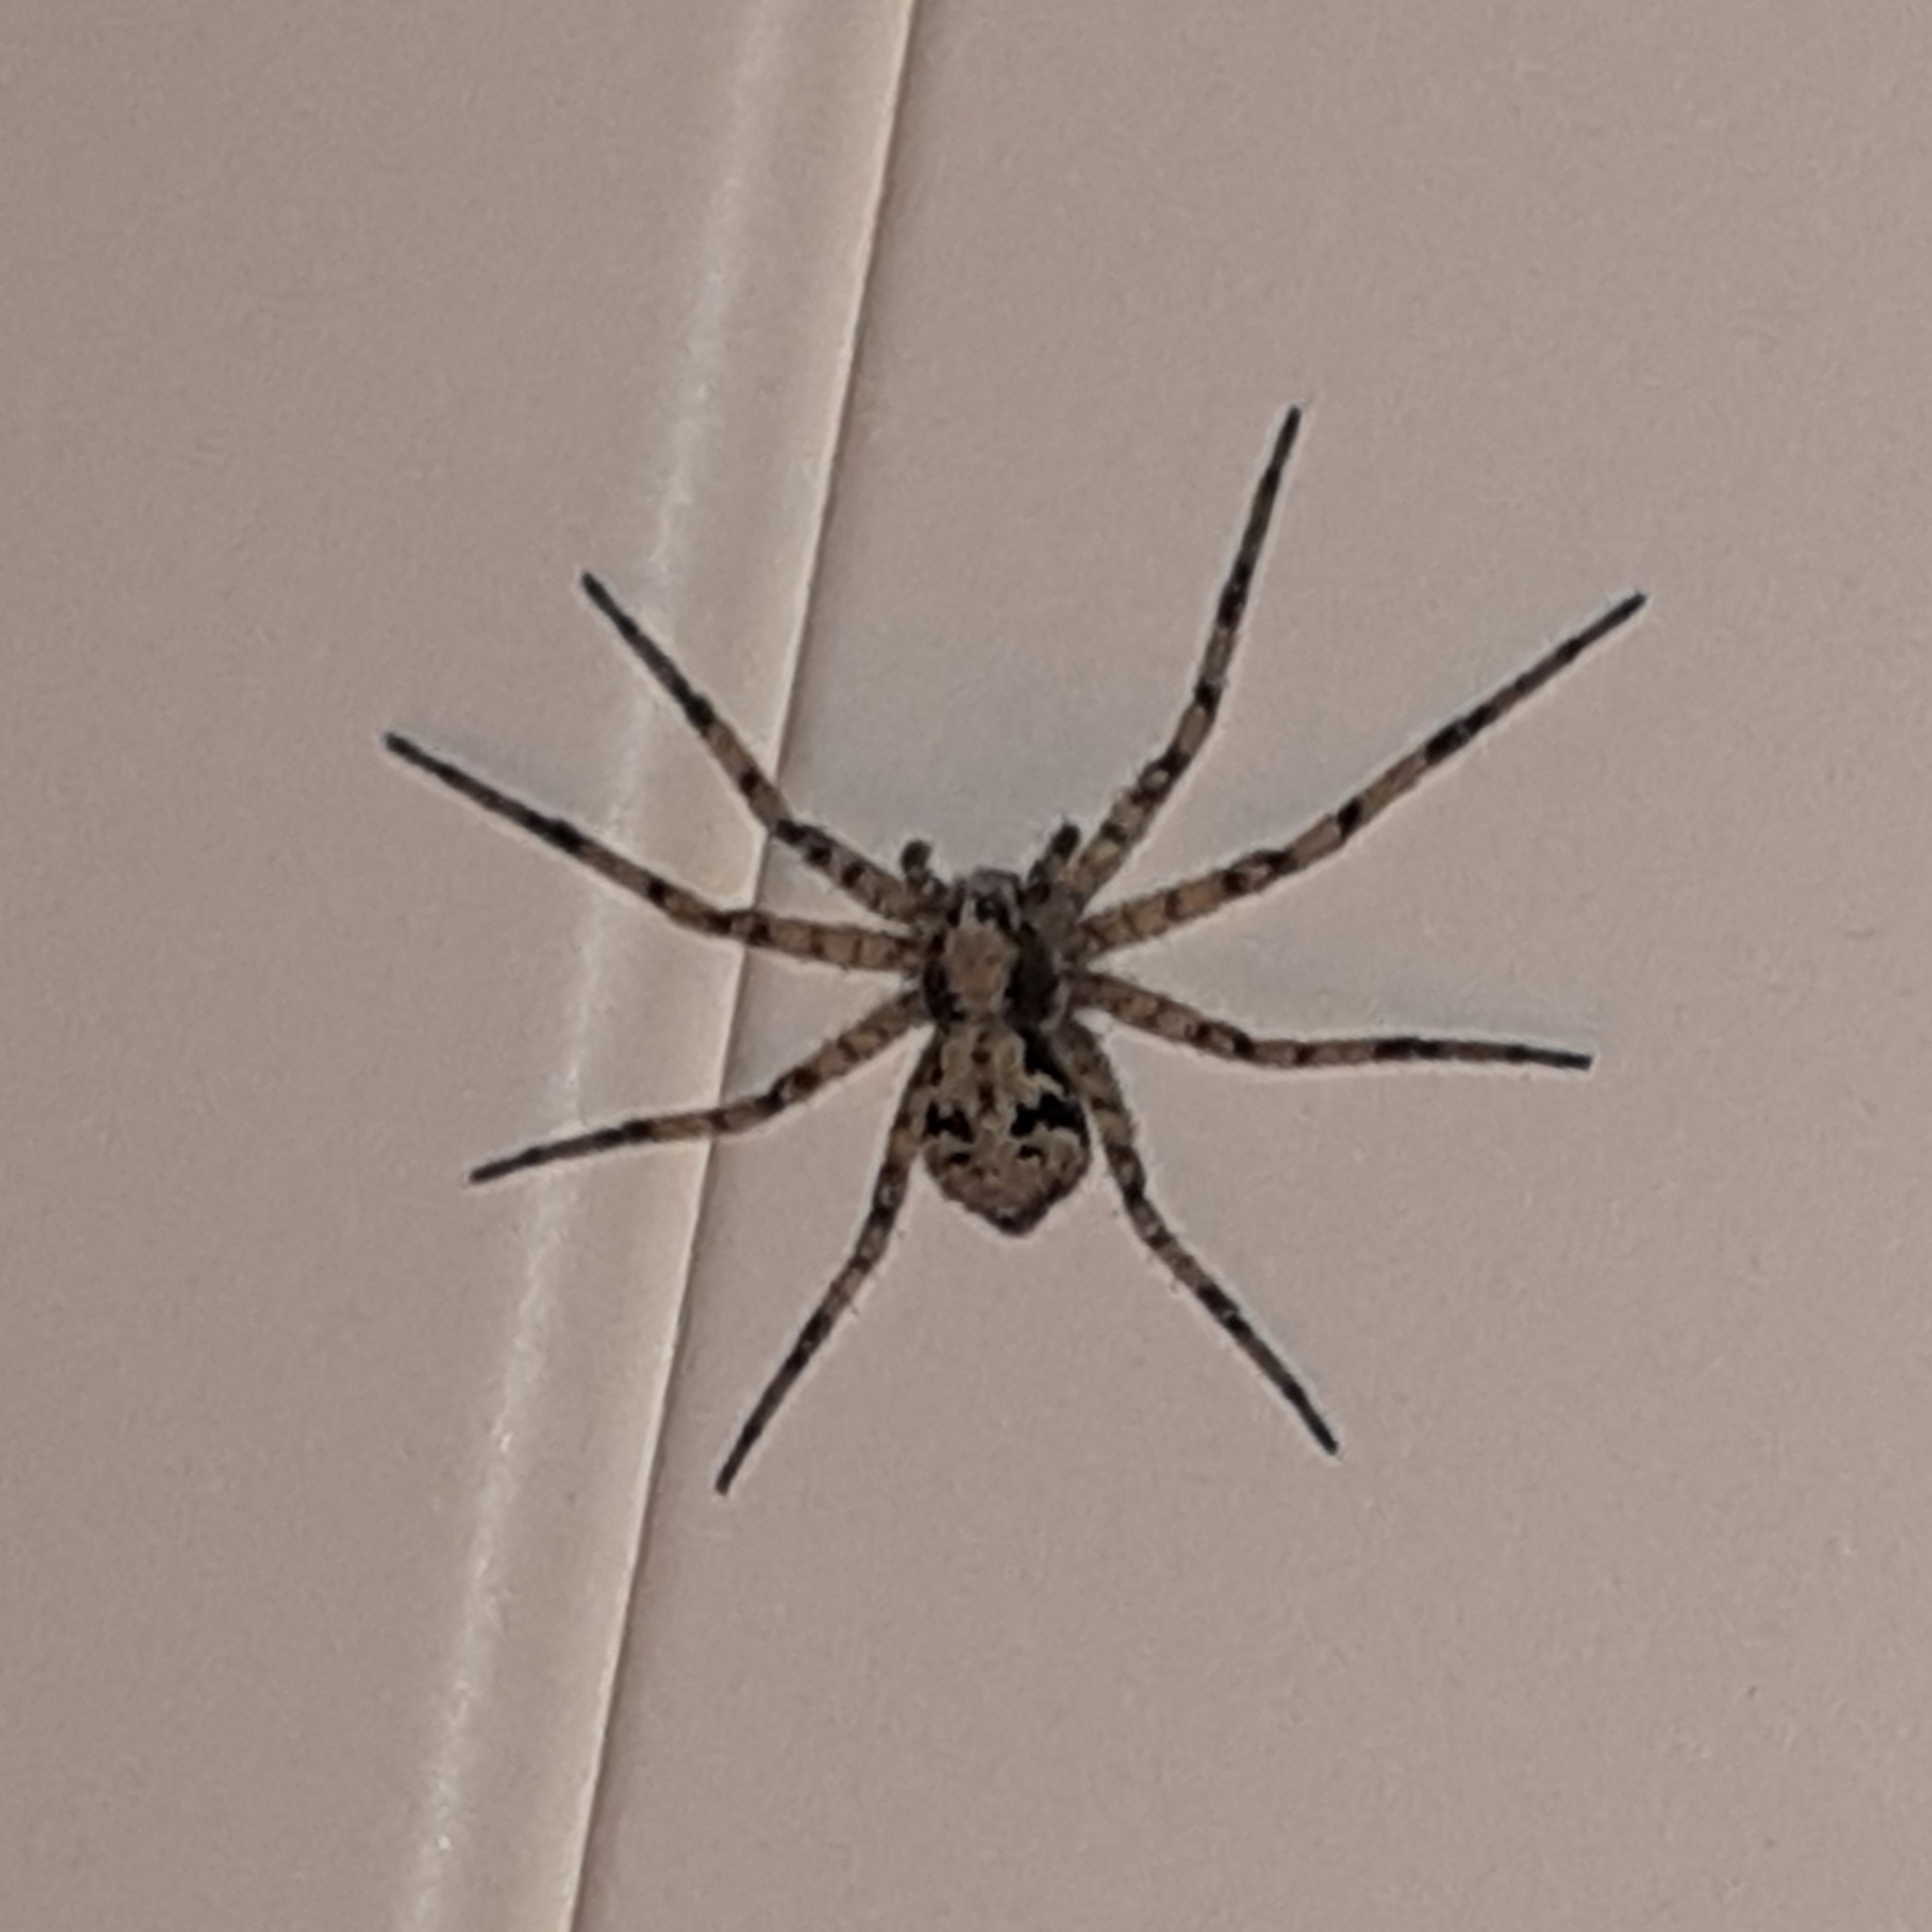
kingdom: Animalia
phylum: Arthropoda
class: Arachnida
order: Araneae
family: Philodromidae
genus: Philodromus
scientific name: Philodromus margaritatus
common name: Lichen running-spider
